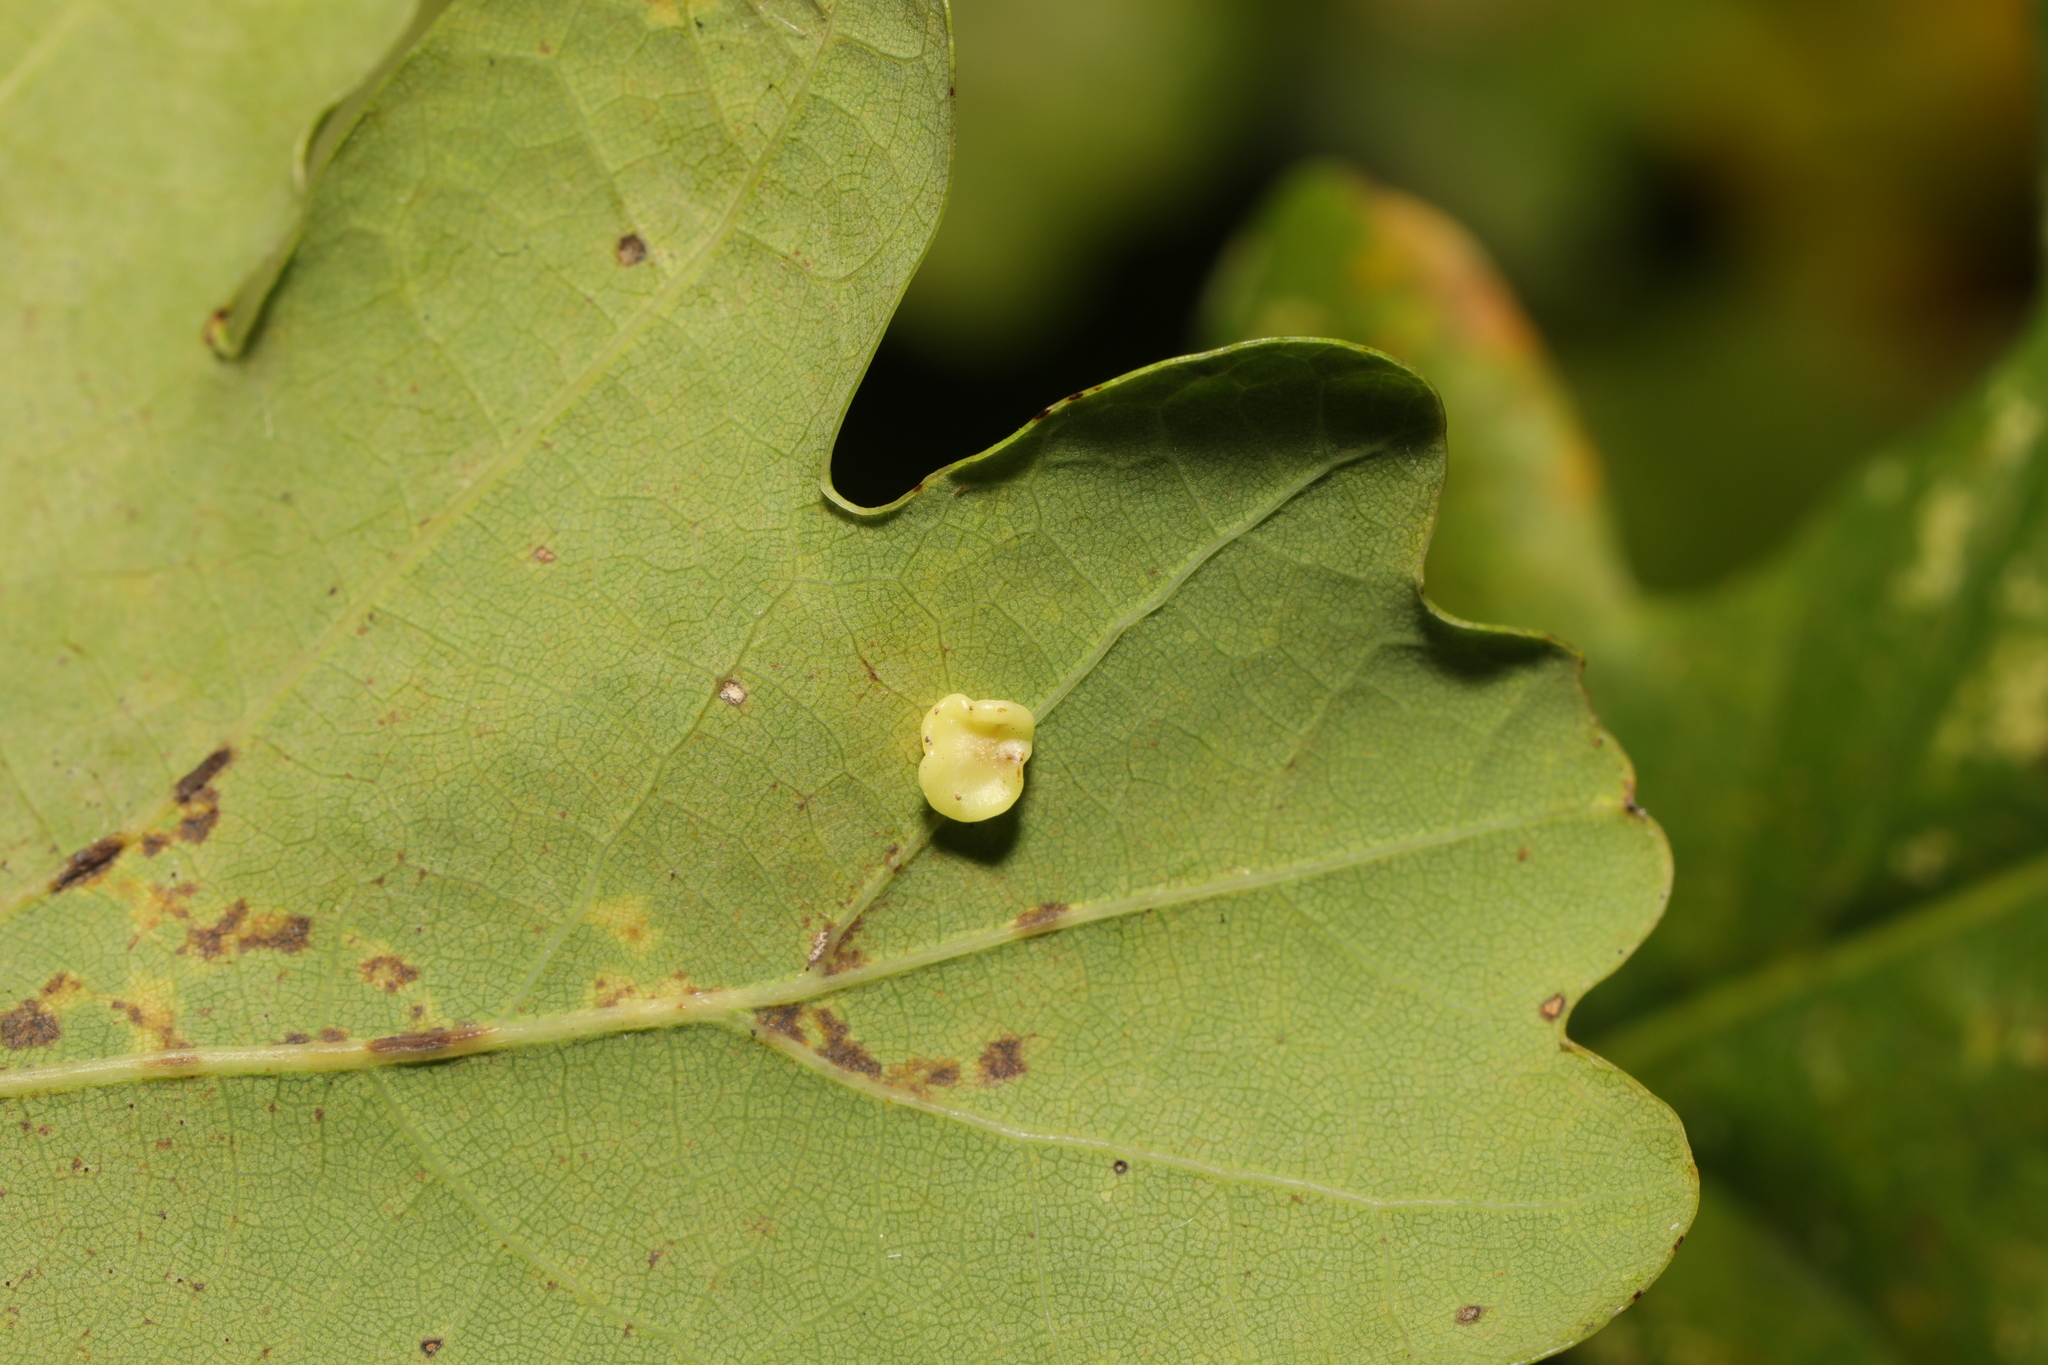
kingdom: Animalia
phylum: Arthropoda
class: Insecta
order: Hymenoptera
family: Cynipidae
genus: Neuroterus
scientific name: Neuroterus albipes
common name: Smooth spangle gall
